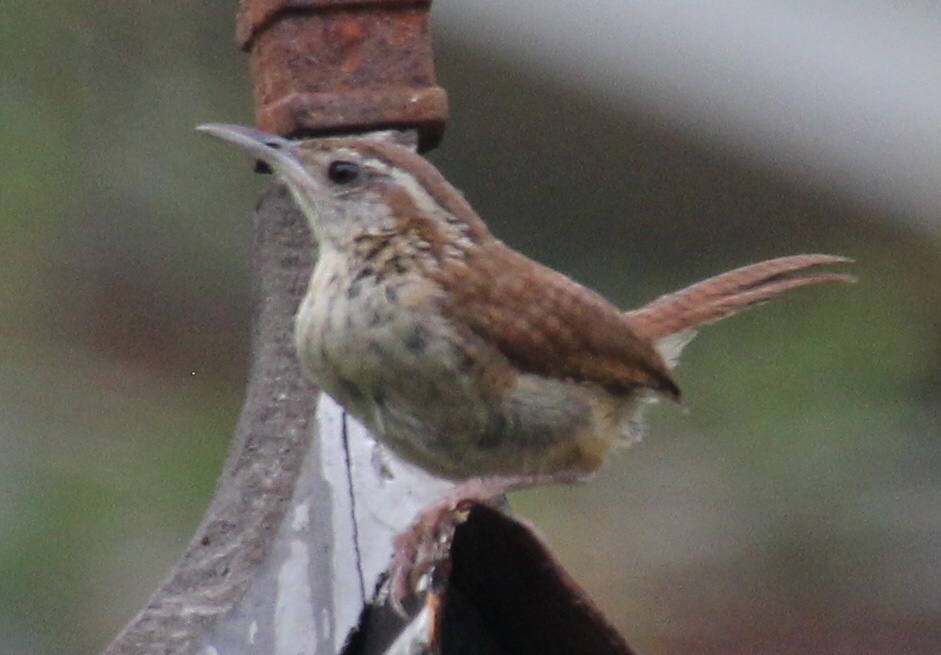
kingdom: Animalia
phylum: Chordata
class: Aves
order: Passeriformes
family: Troglodytidae
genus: Thryothorus
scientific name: Thryothorus ludovicianus
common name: Carolina wren
